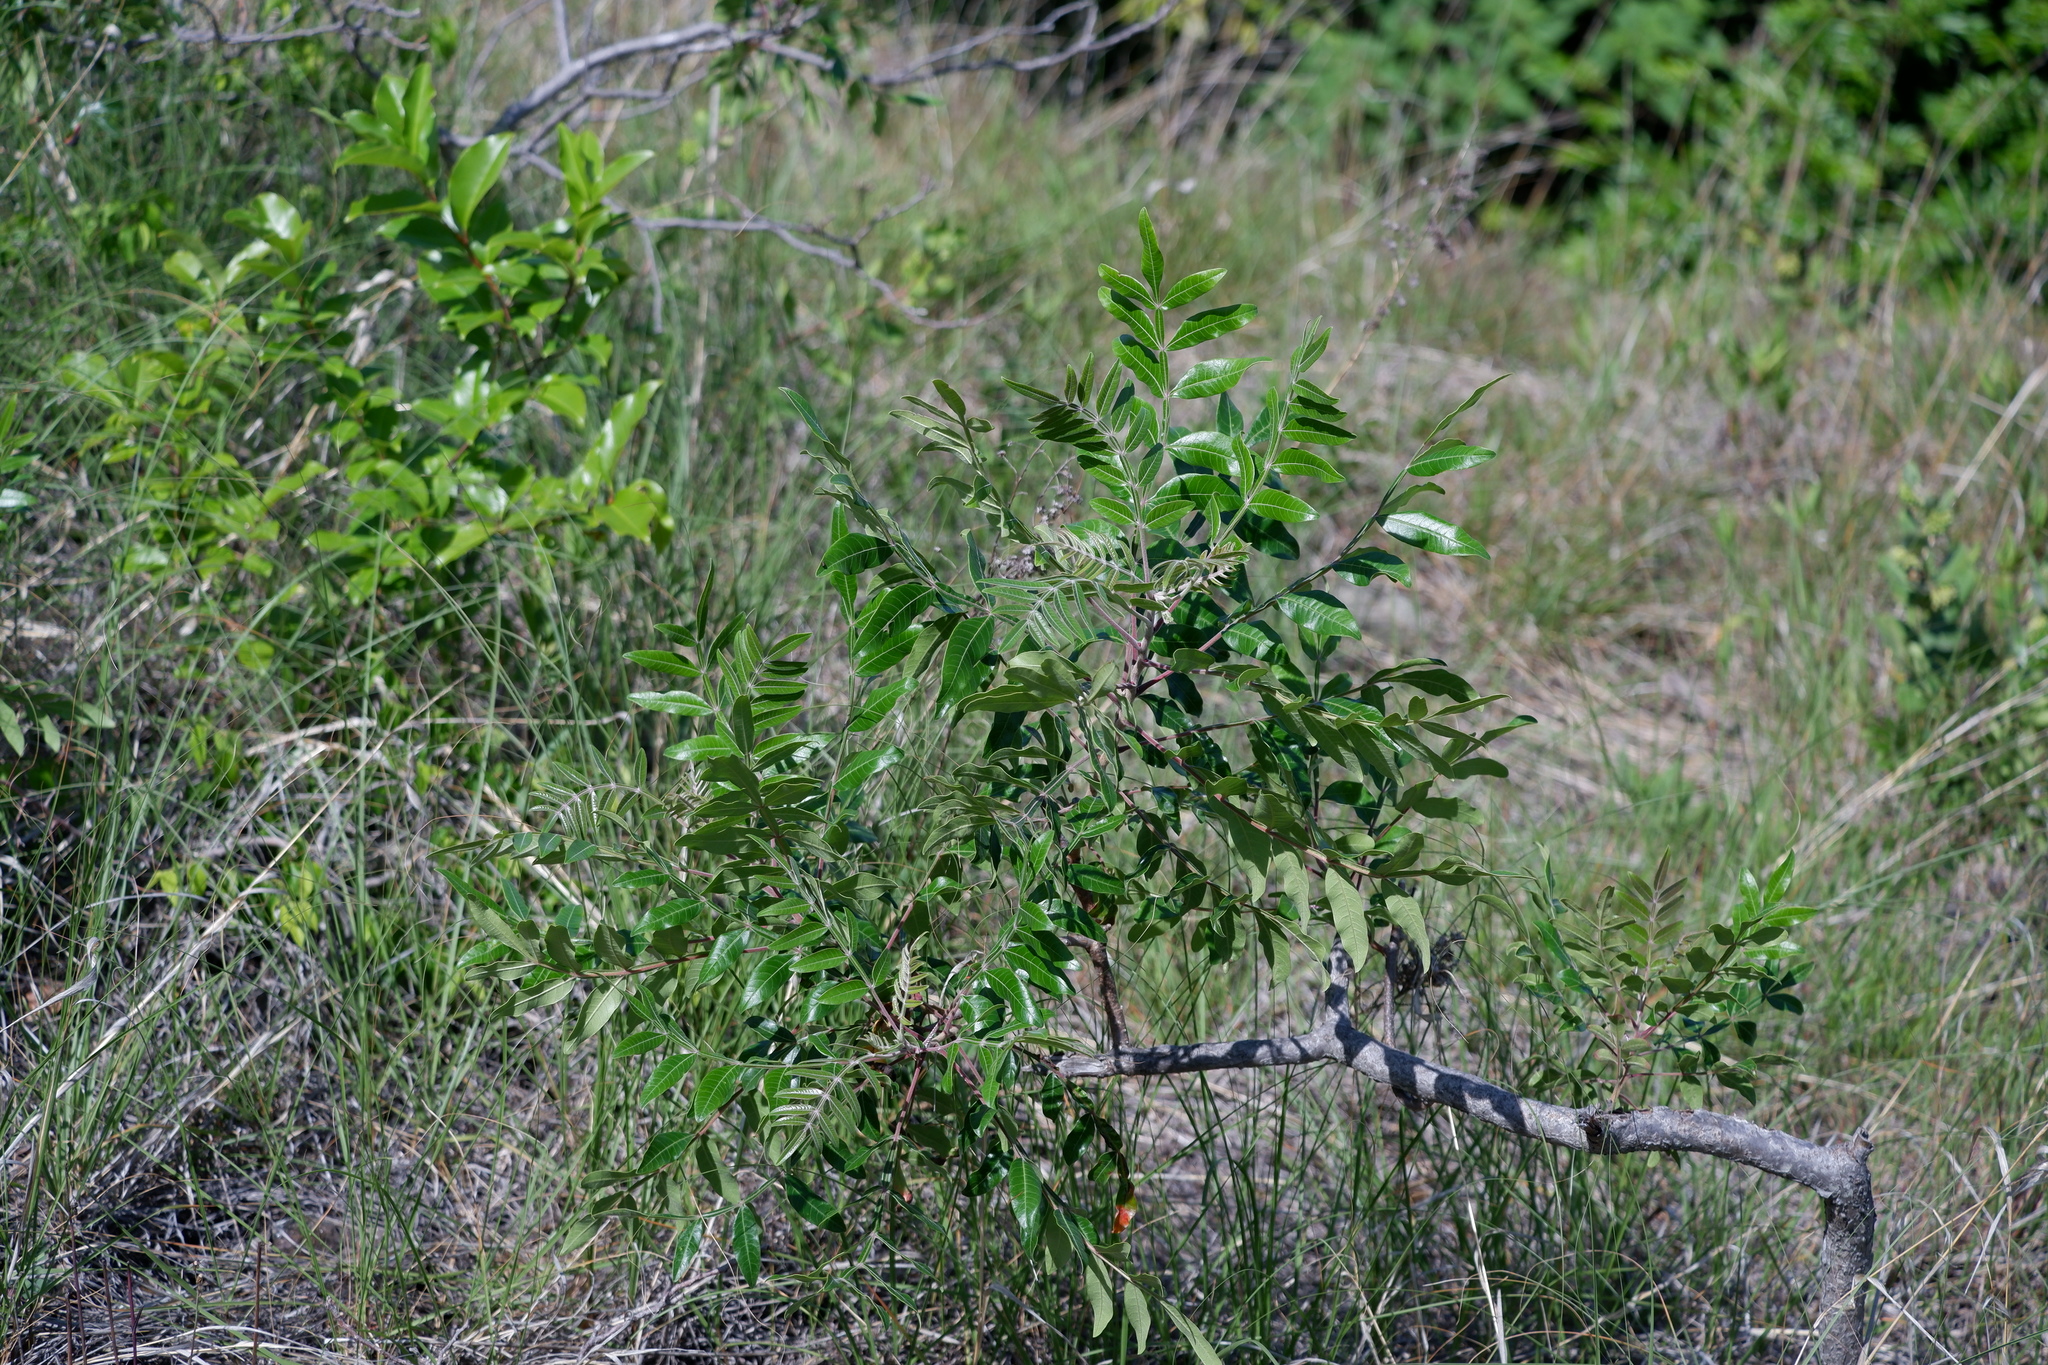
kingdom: Plantae
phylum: Tracheophyta
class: Magnoliopsida
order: Sapindales
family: Anacardiaceae
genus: Rhus
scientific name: Rhus copallina
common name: Shining sumac
